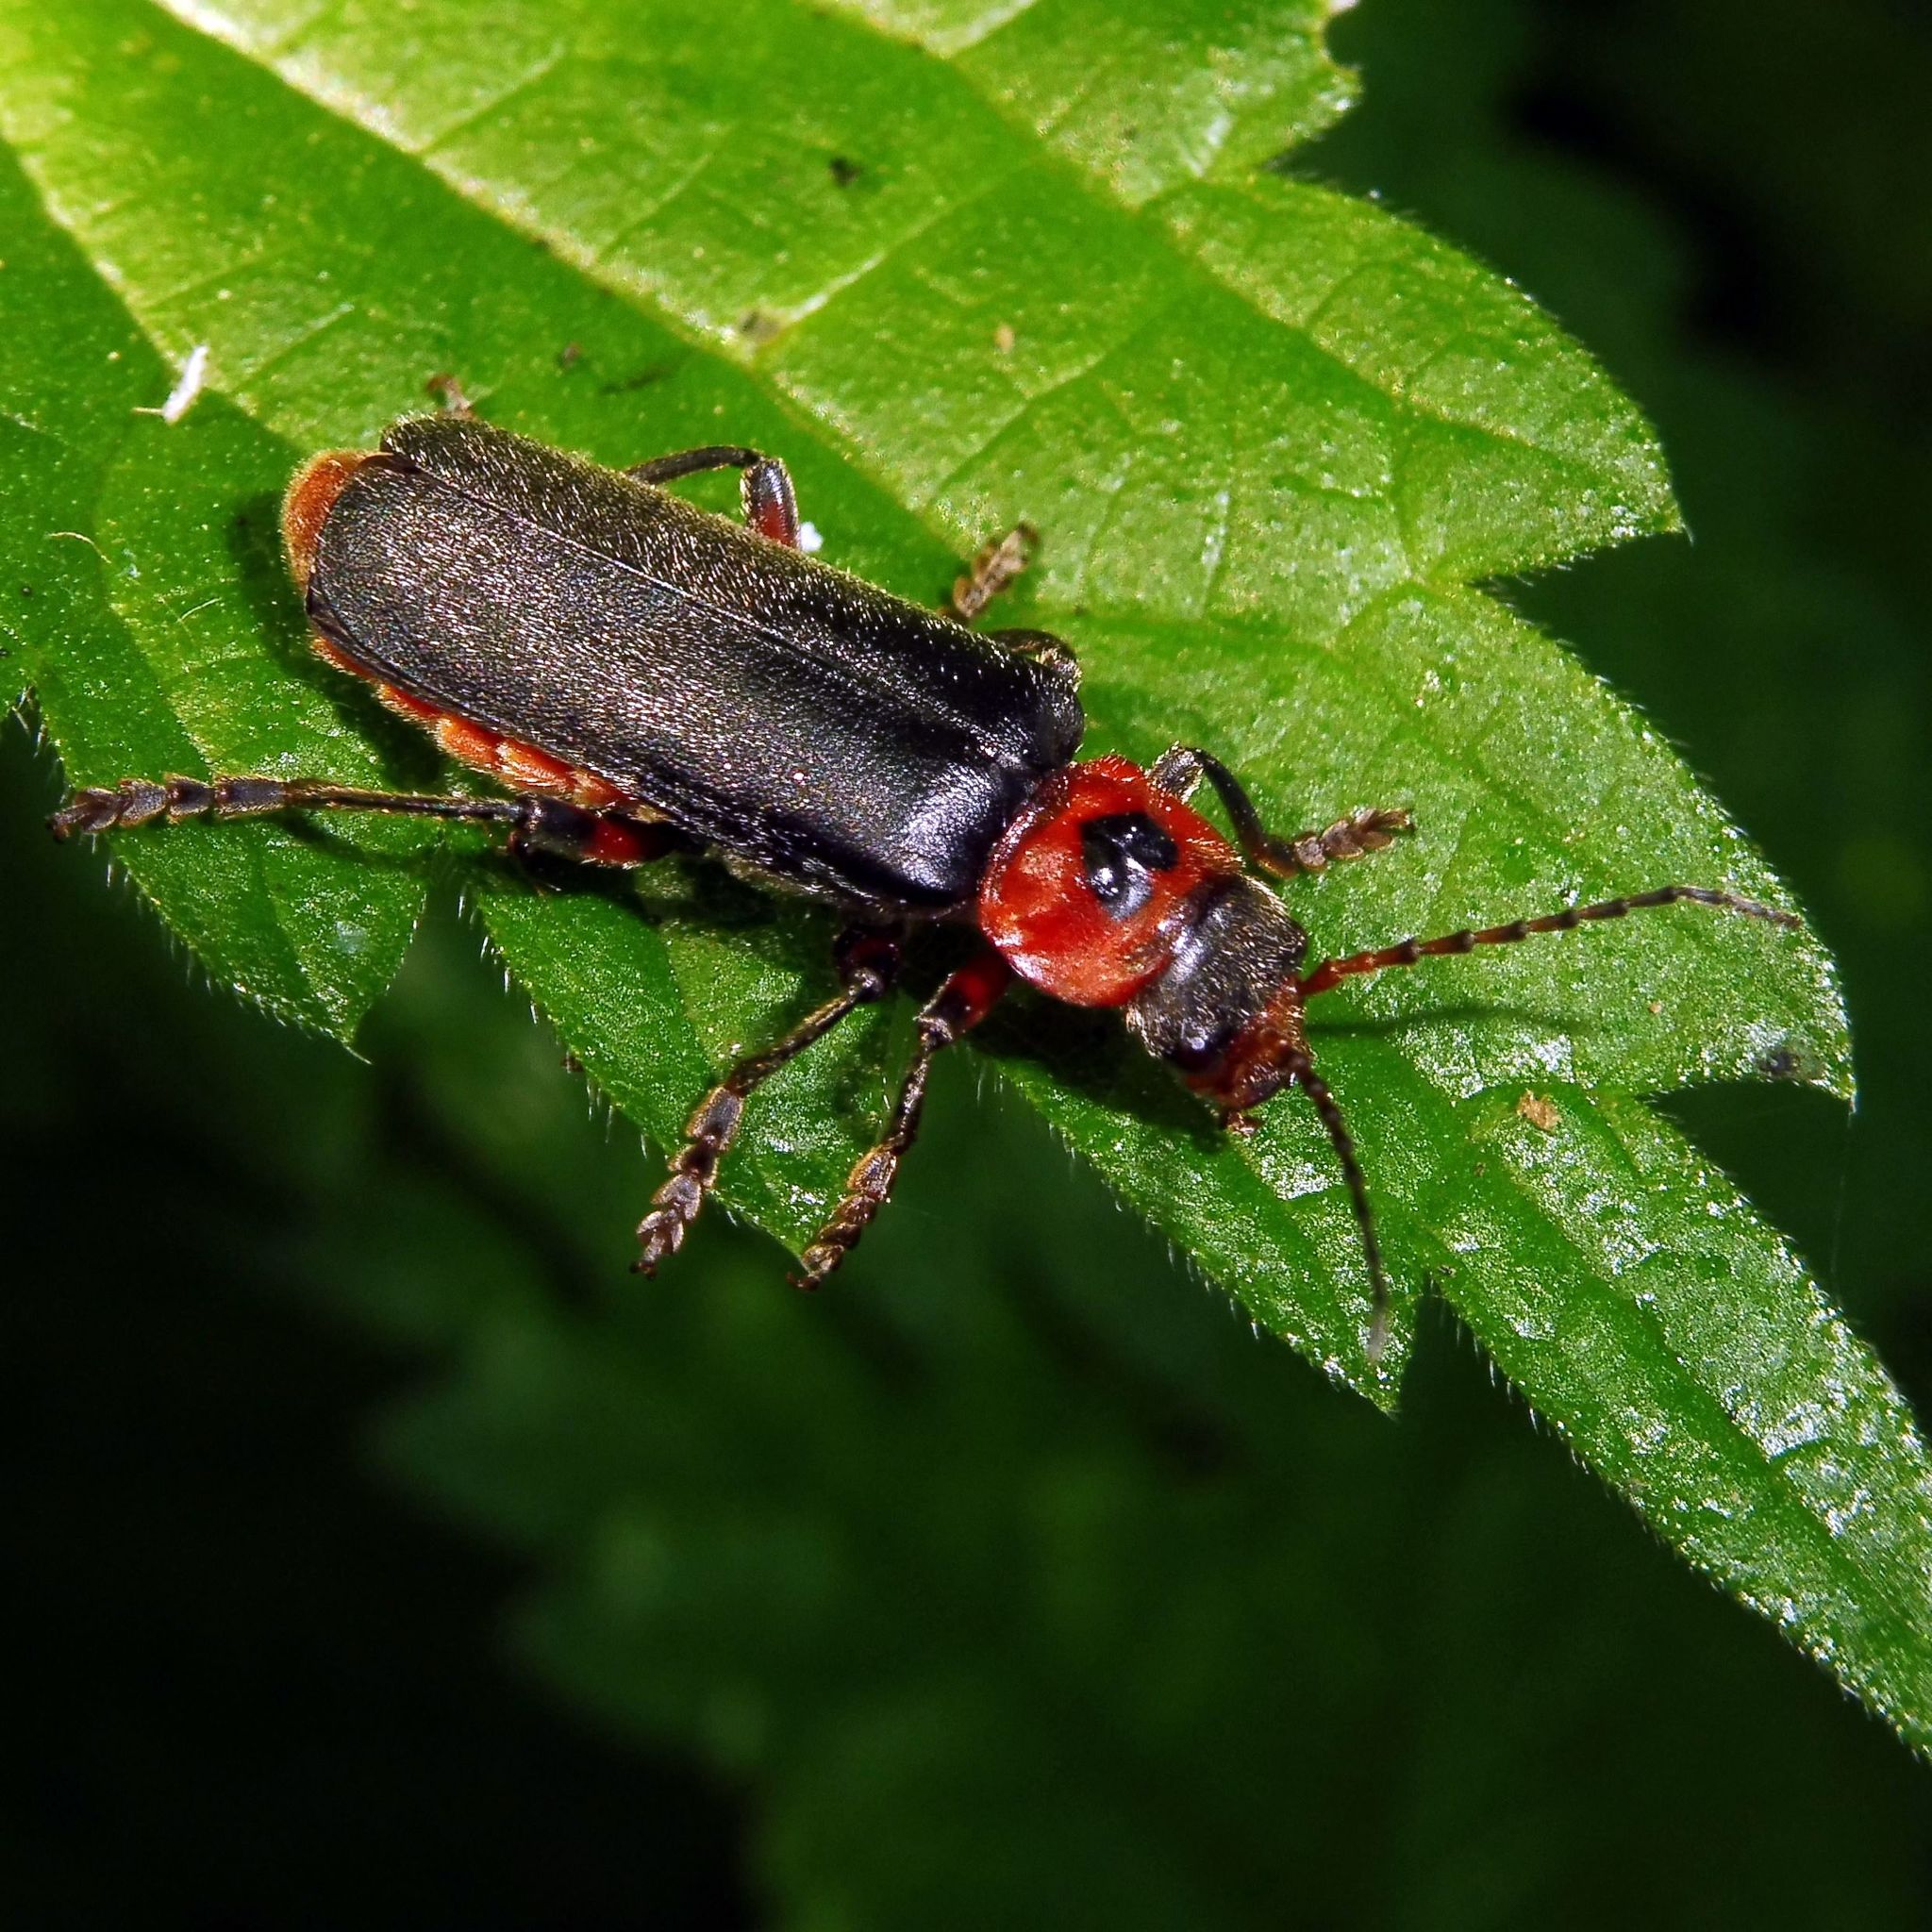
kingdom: Animalia
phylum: Arthropoda
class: Insecta
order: Coleoptera
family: Cantharidae
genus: Cantharis
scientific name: Cantharis rustica
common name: Soldier beetle
